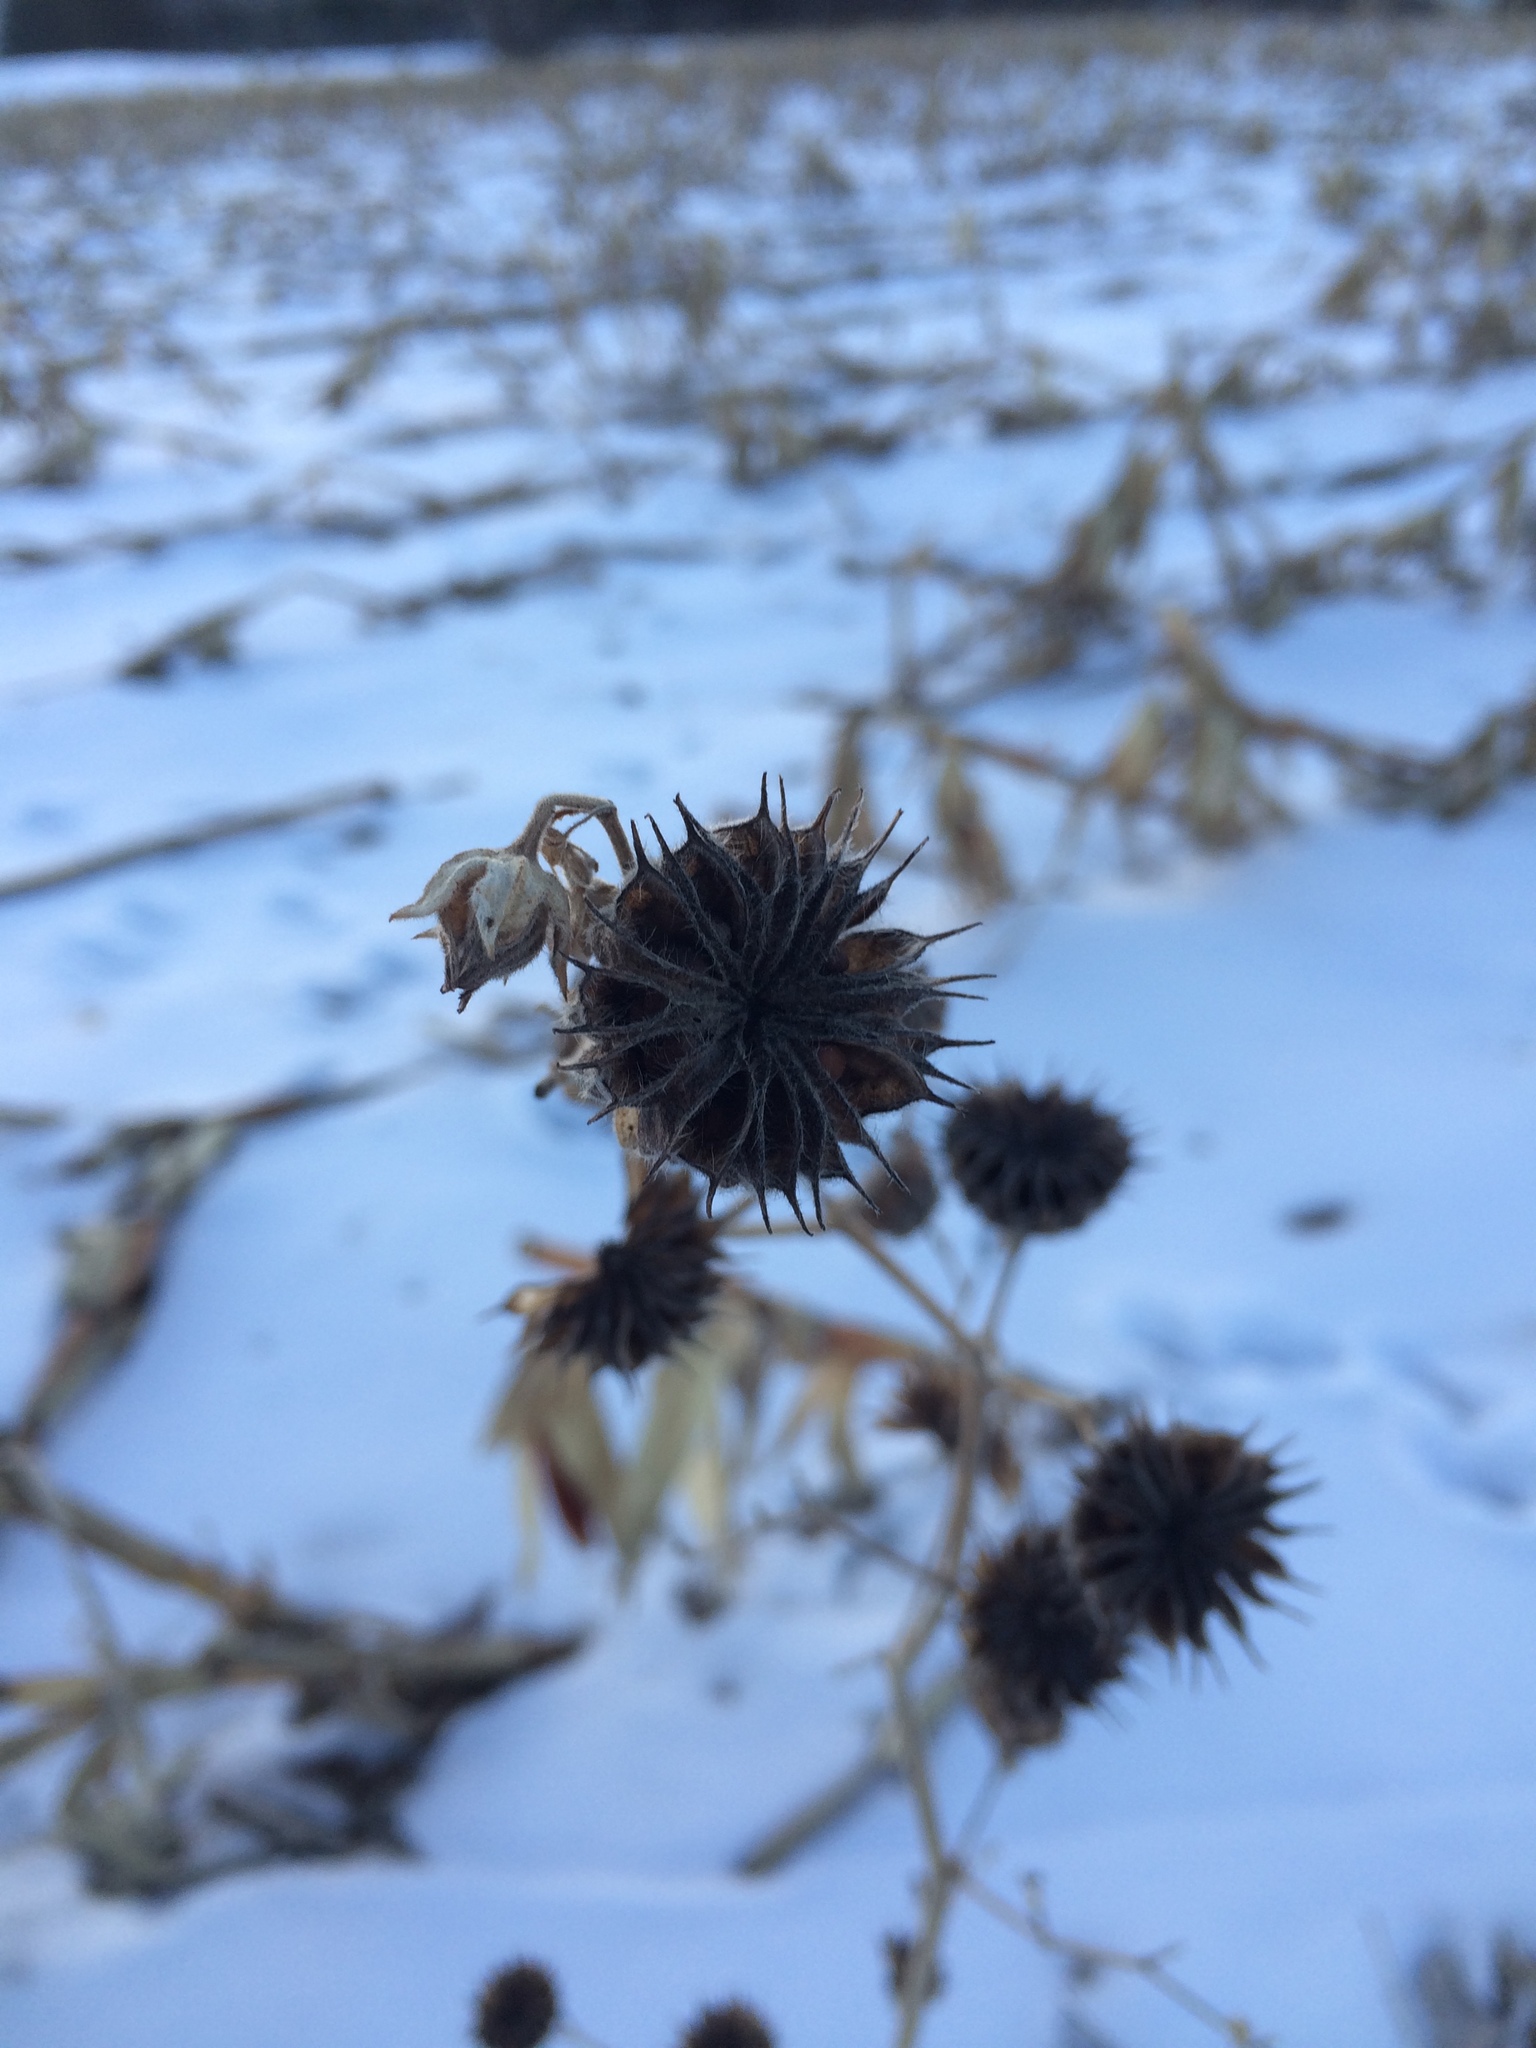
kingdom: Plantae
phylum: Tracheophyta
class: Magnoliopsida
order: Malvales
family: Malvaceae
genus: Abutilon
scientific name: Abutilon theophrasti
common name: Velvetleaf
